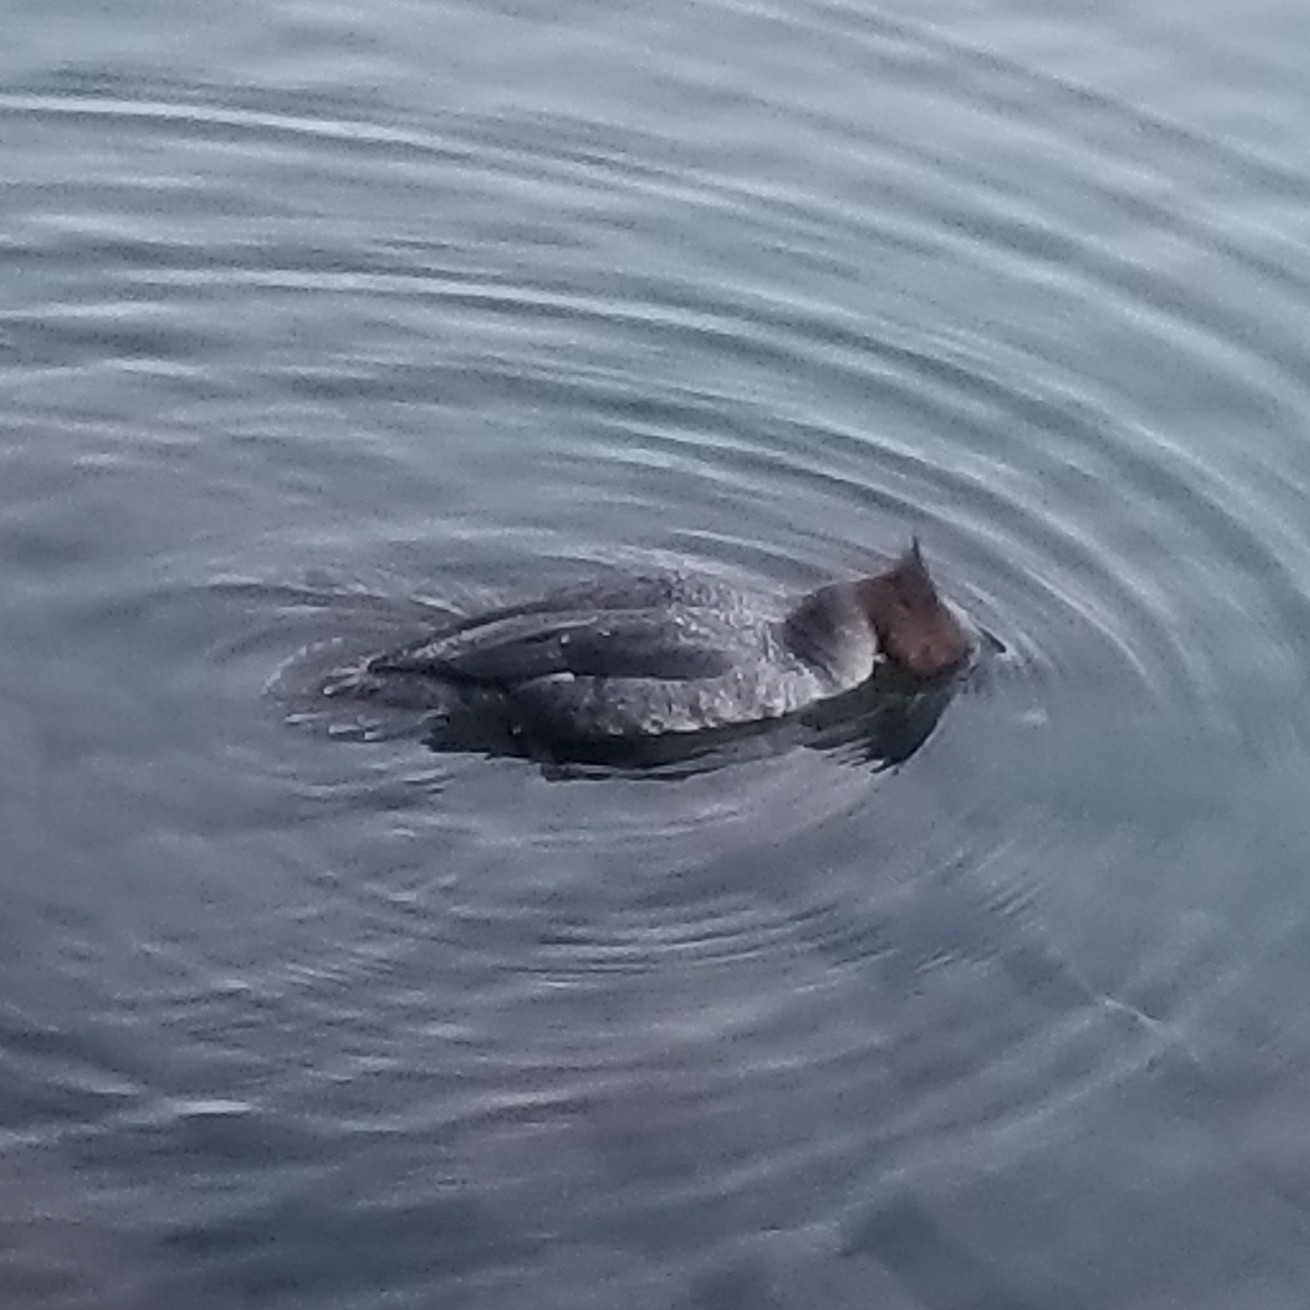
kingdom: Animalia
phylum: Chordata
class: Aves
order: Anseriformes
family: Anatidae
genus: Mergus
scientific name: Mergus merganser
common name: Common merganser
